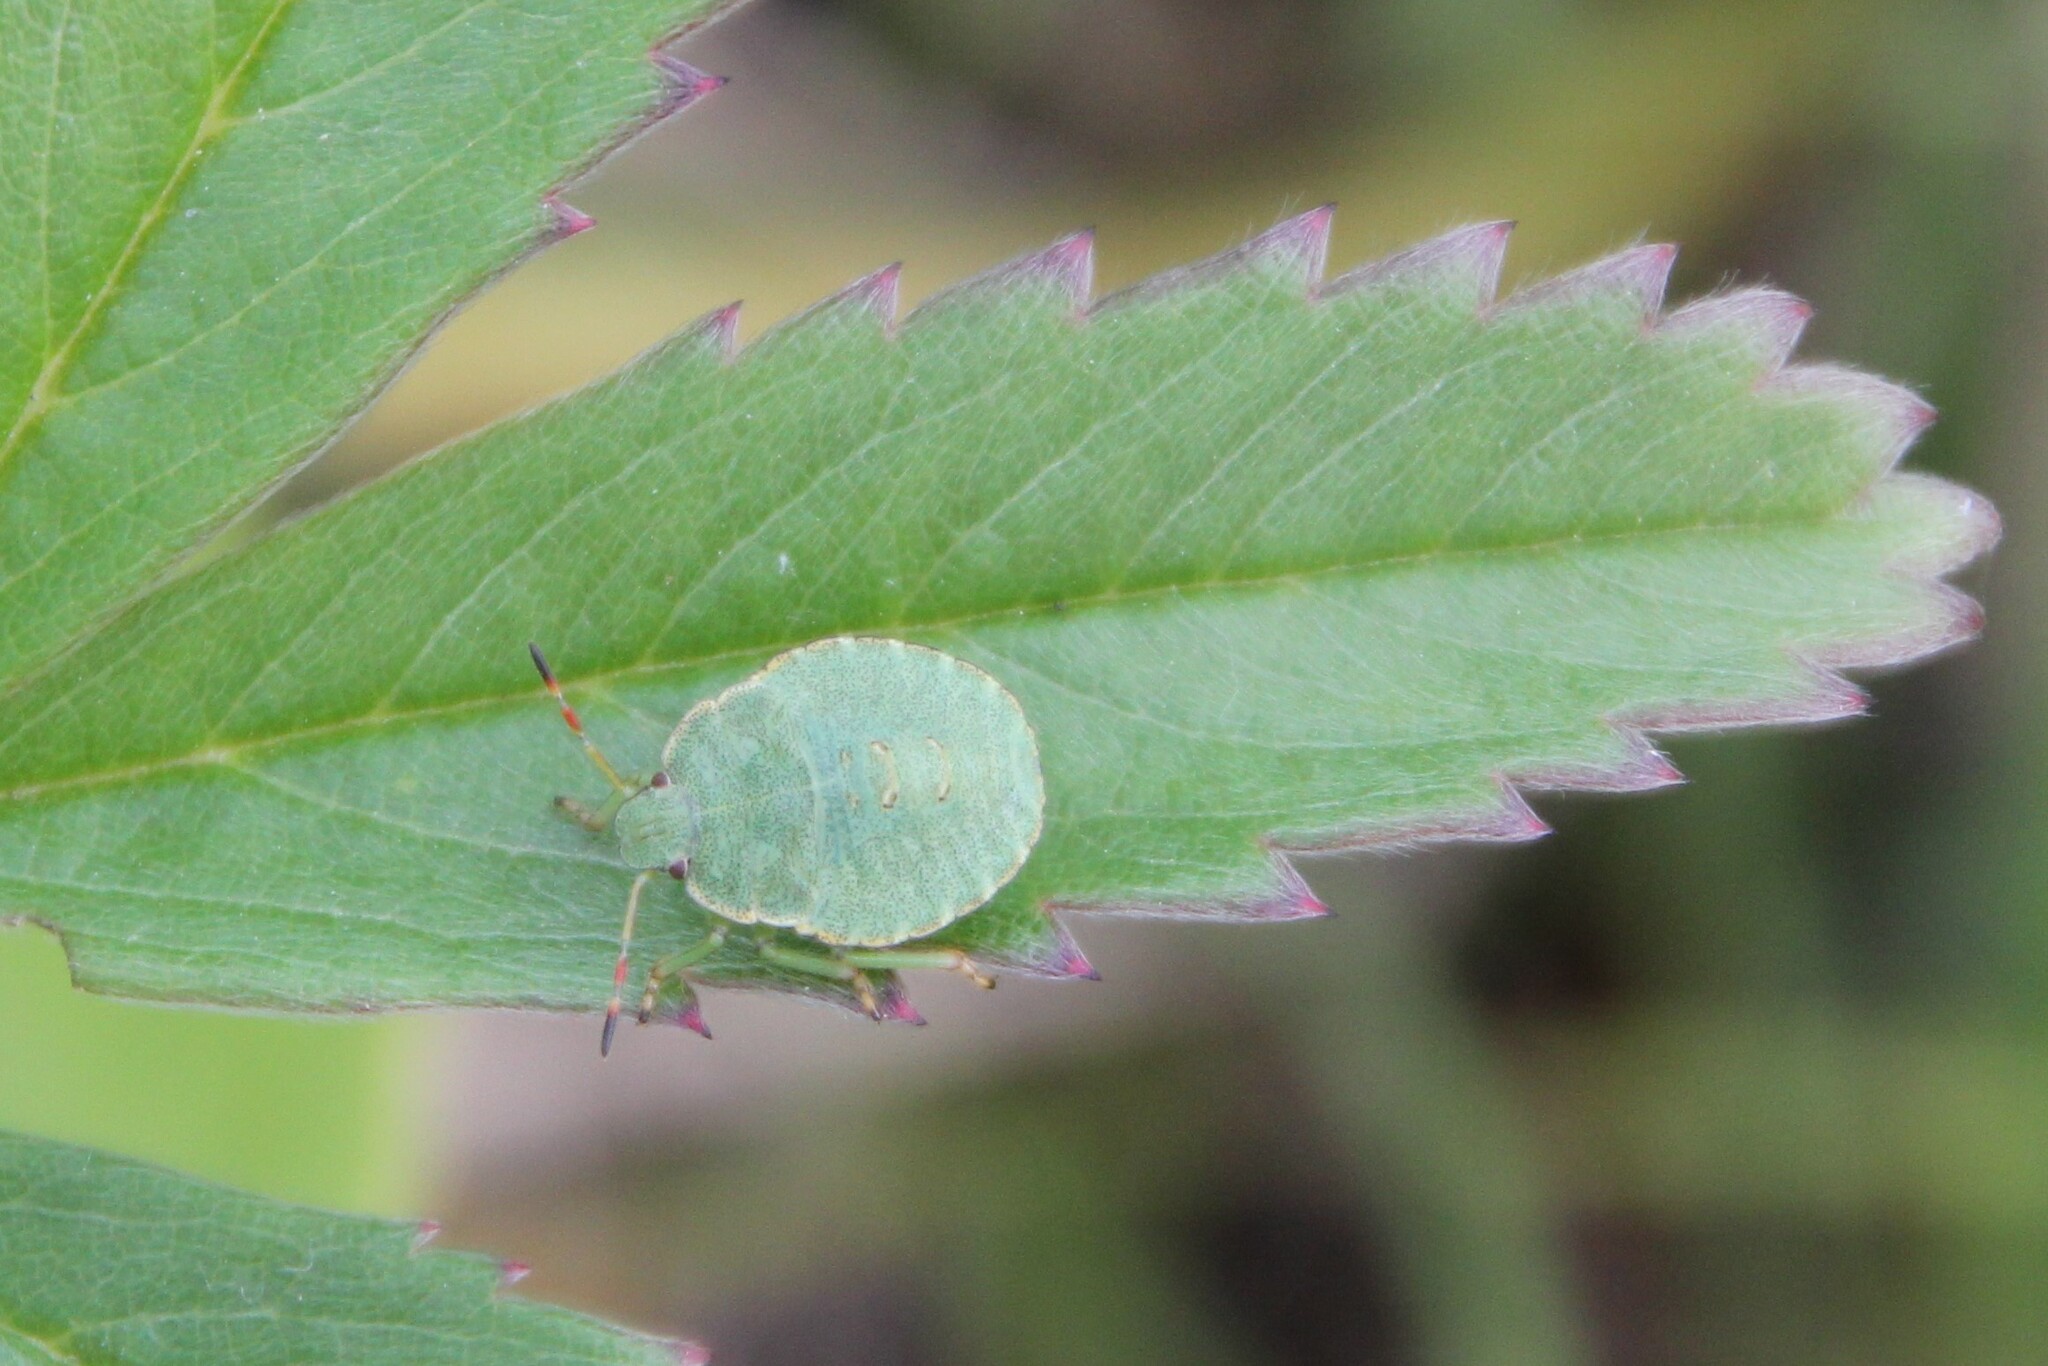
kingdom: Animalia
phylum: Arthropoda
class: Insecta
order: Hemiptera
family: Pentatomidae
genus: Palomena
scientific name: Palomena prasina
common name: Green shieldbug
